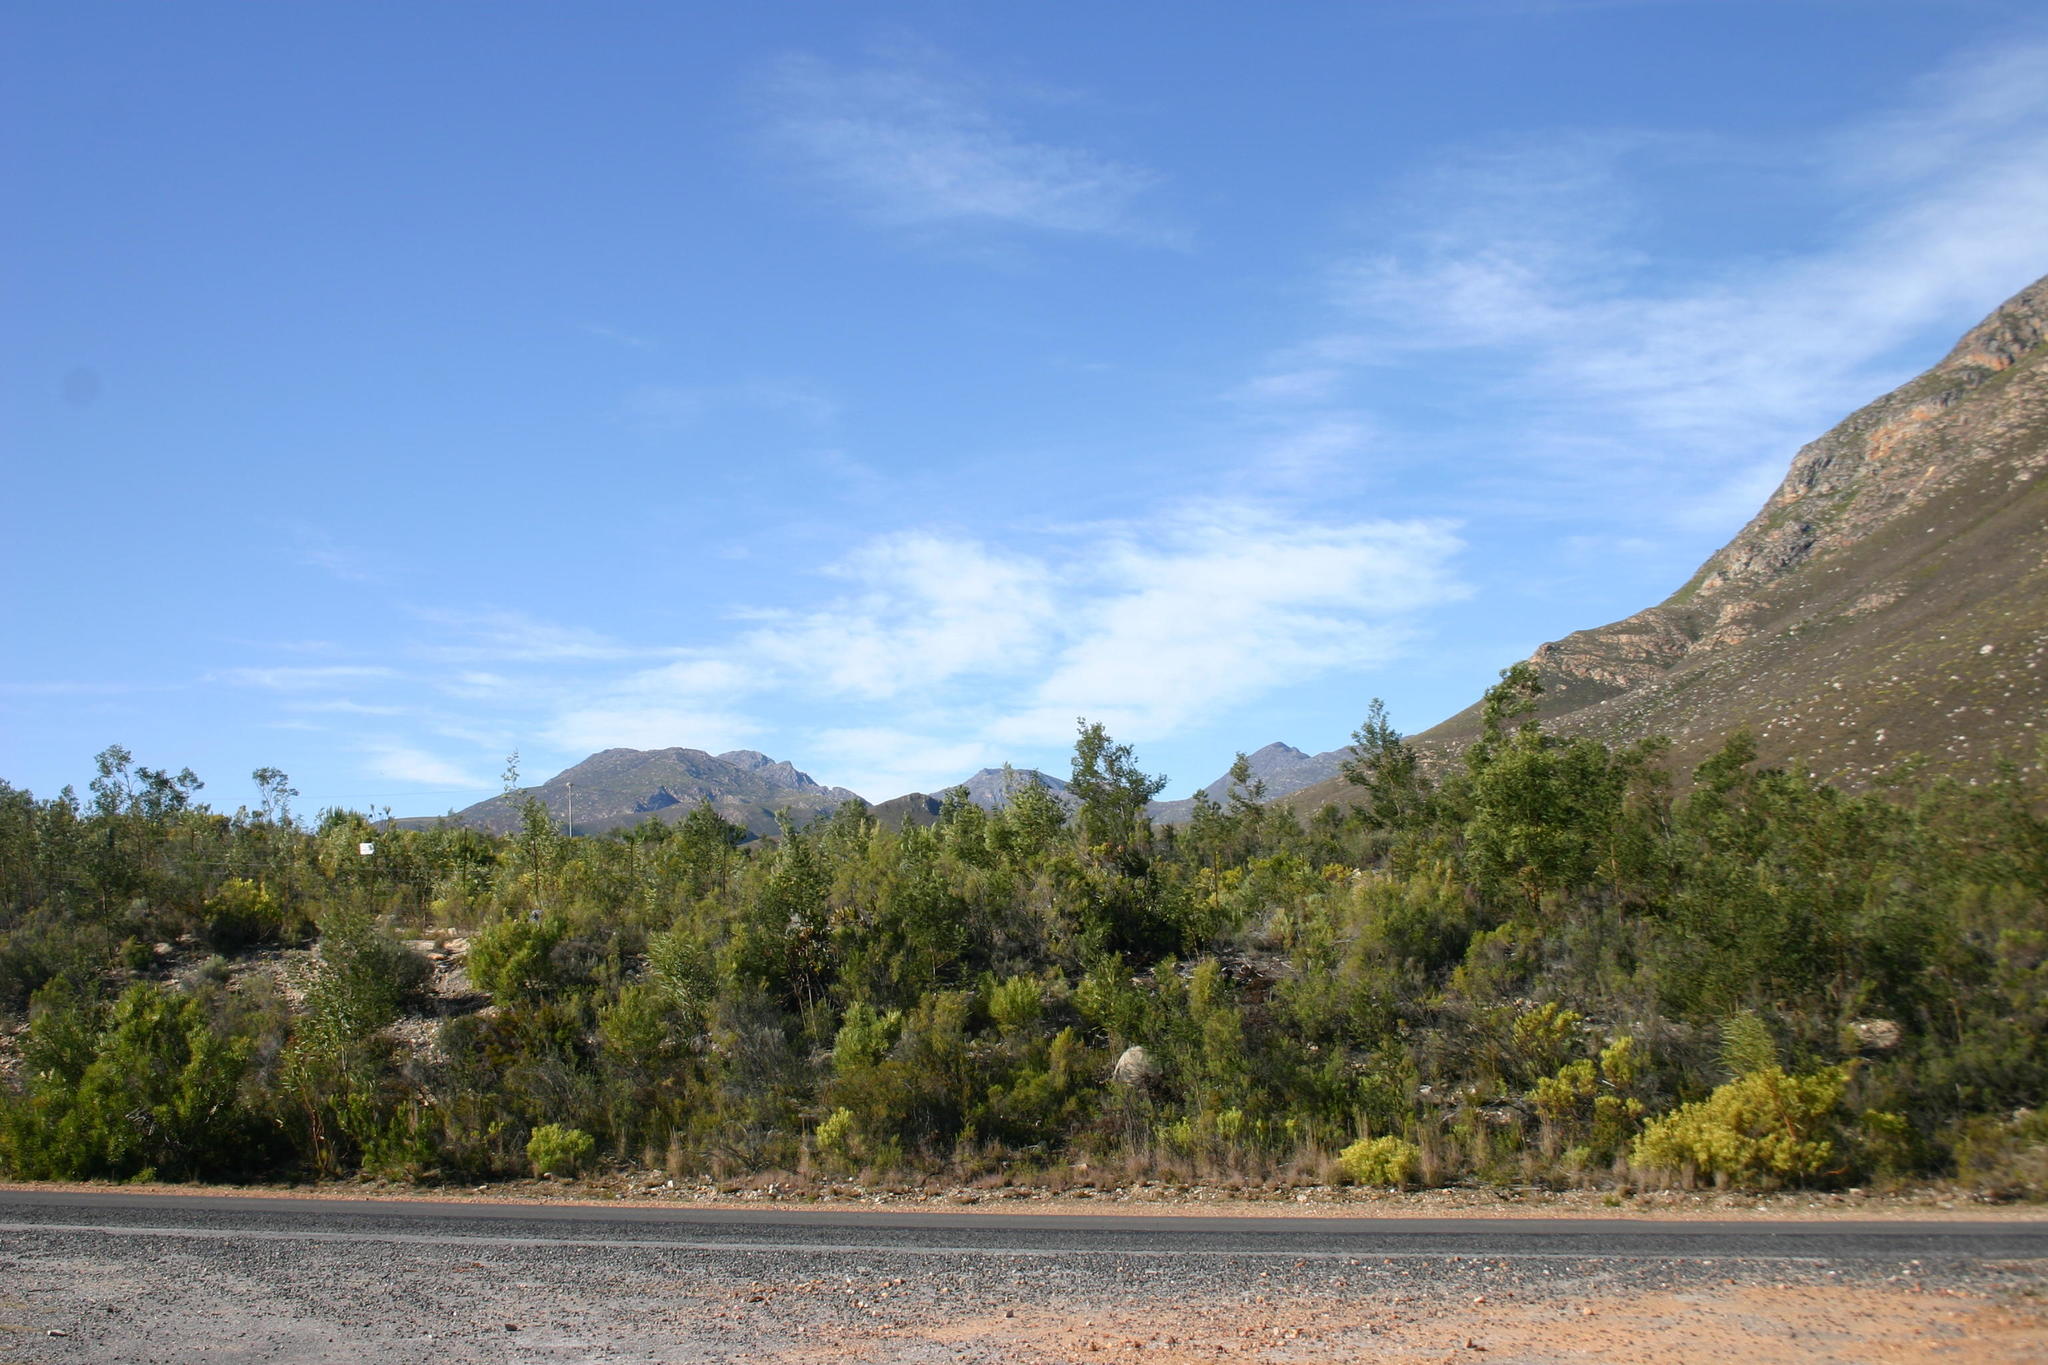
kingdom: Plantae
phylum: Tracheophyta
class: Magnoliopsida
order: Fabales
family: Fabaceae
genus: Acacia
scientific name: Acacia mearnsii
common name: Black wattle
